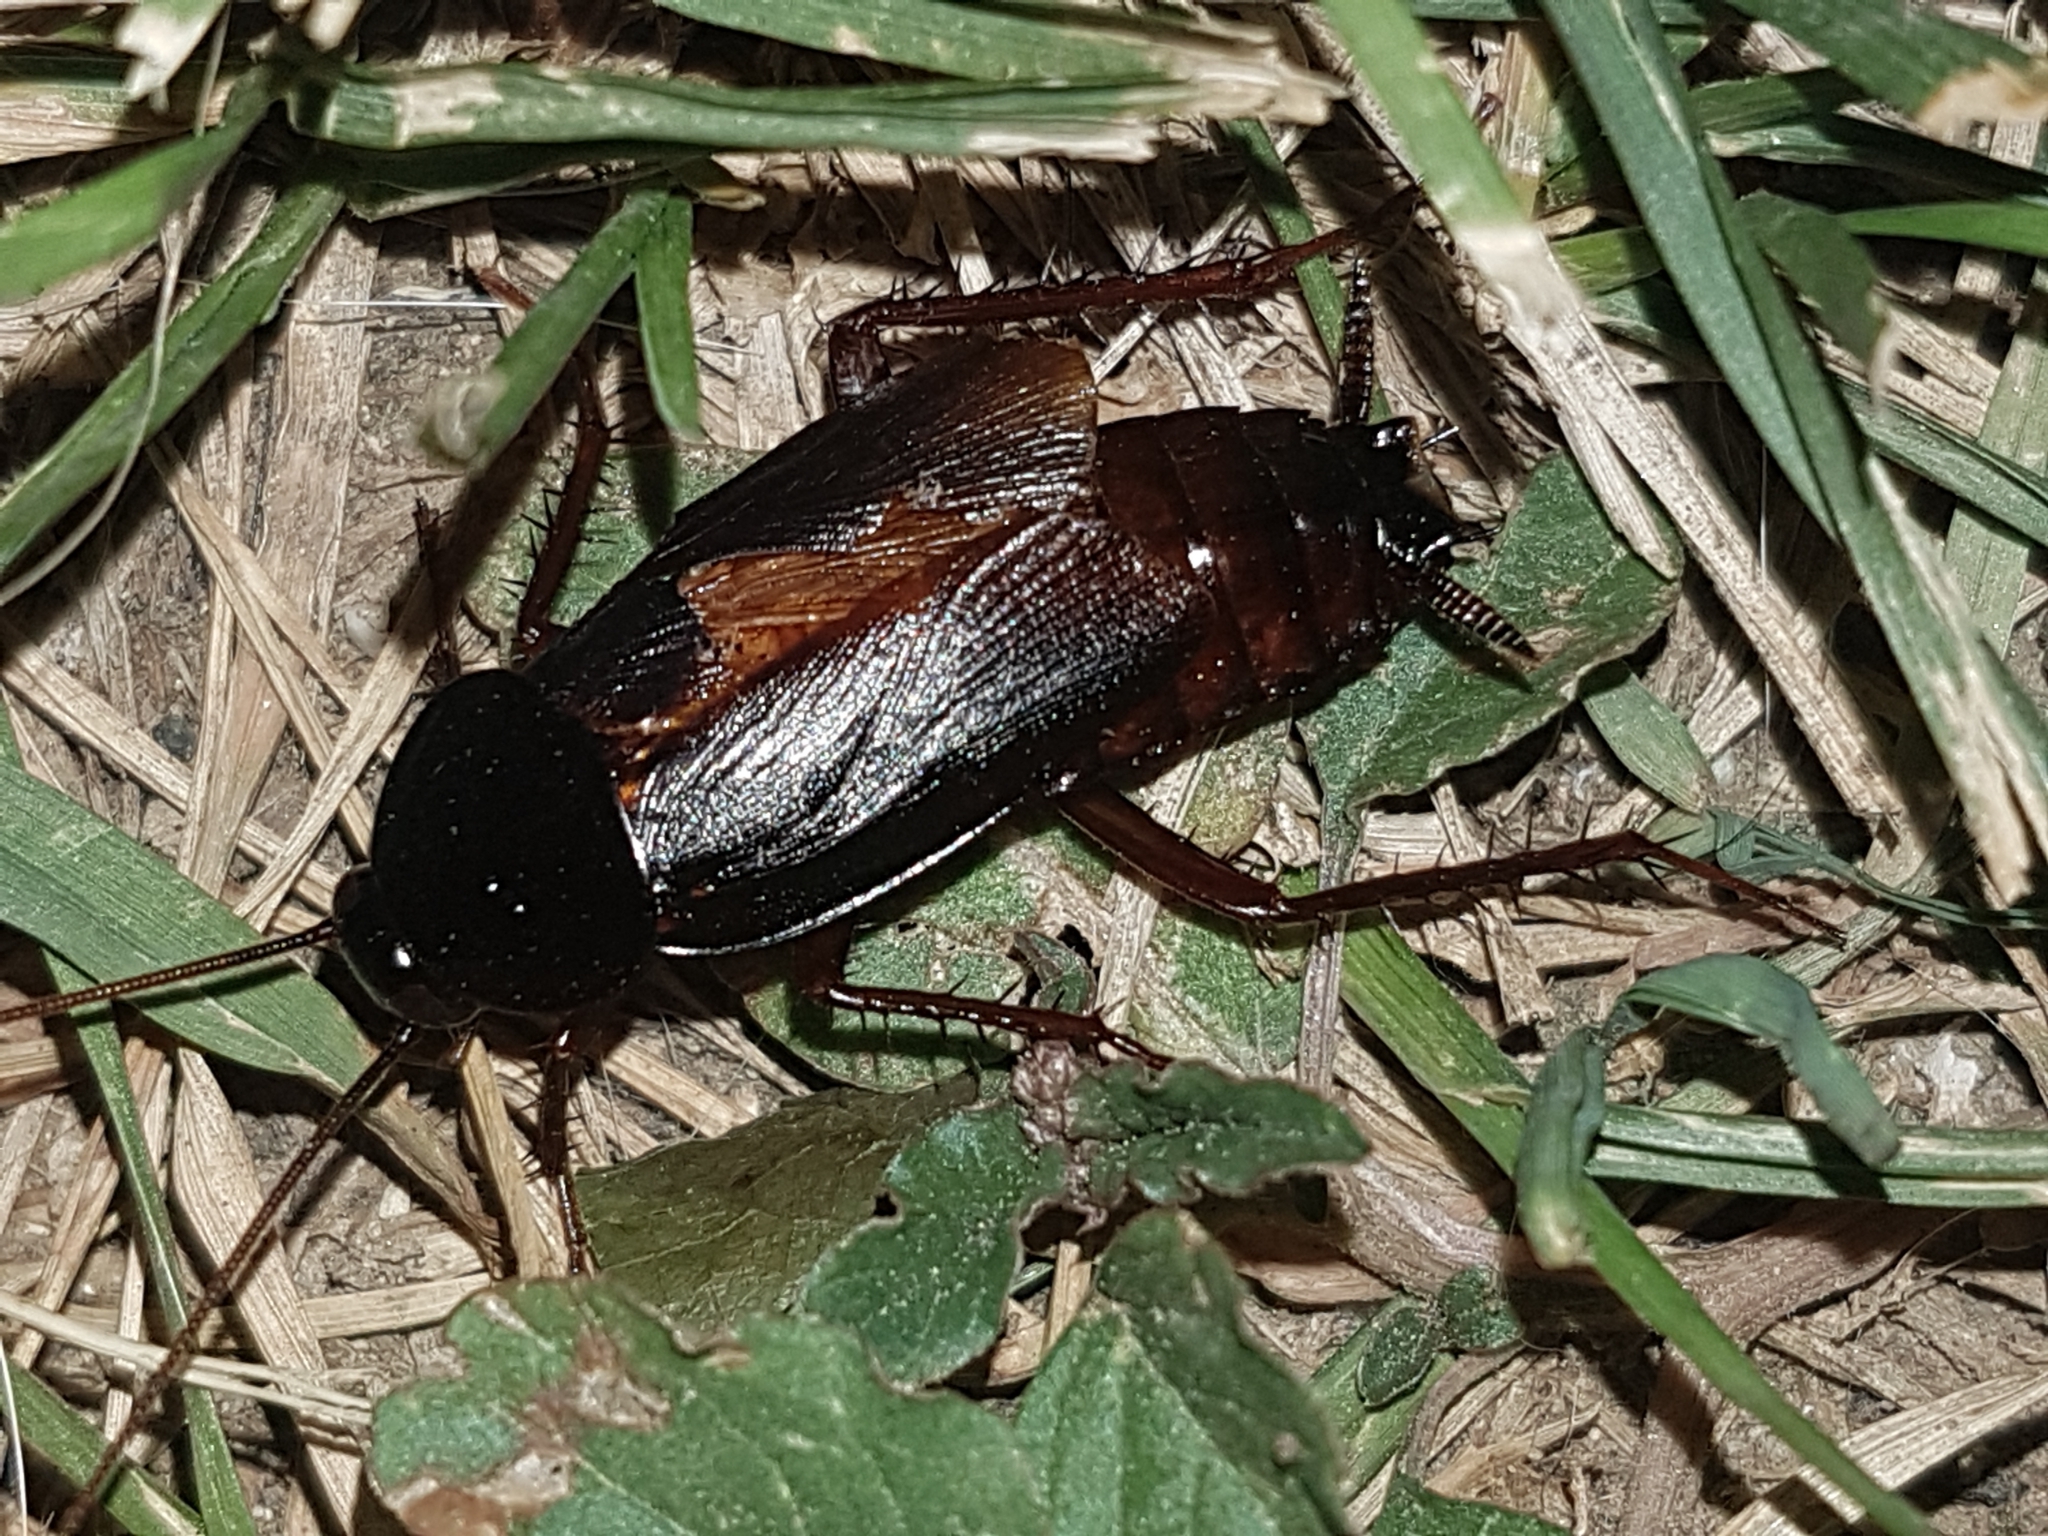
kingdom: Animalia
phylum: Arthropoda
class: Insecta
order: Blattodea
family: Blattidae
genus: Blatta
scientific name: Blatta orientalis
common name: Oriental cockroach
